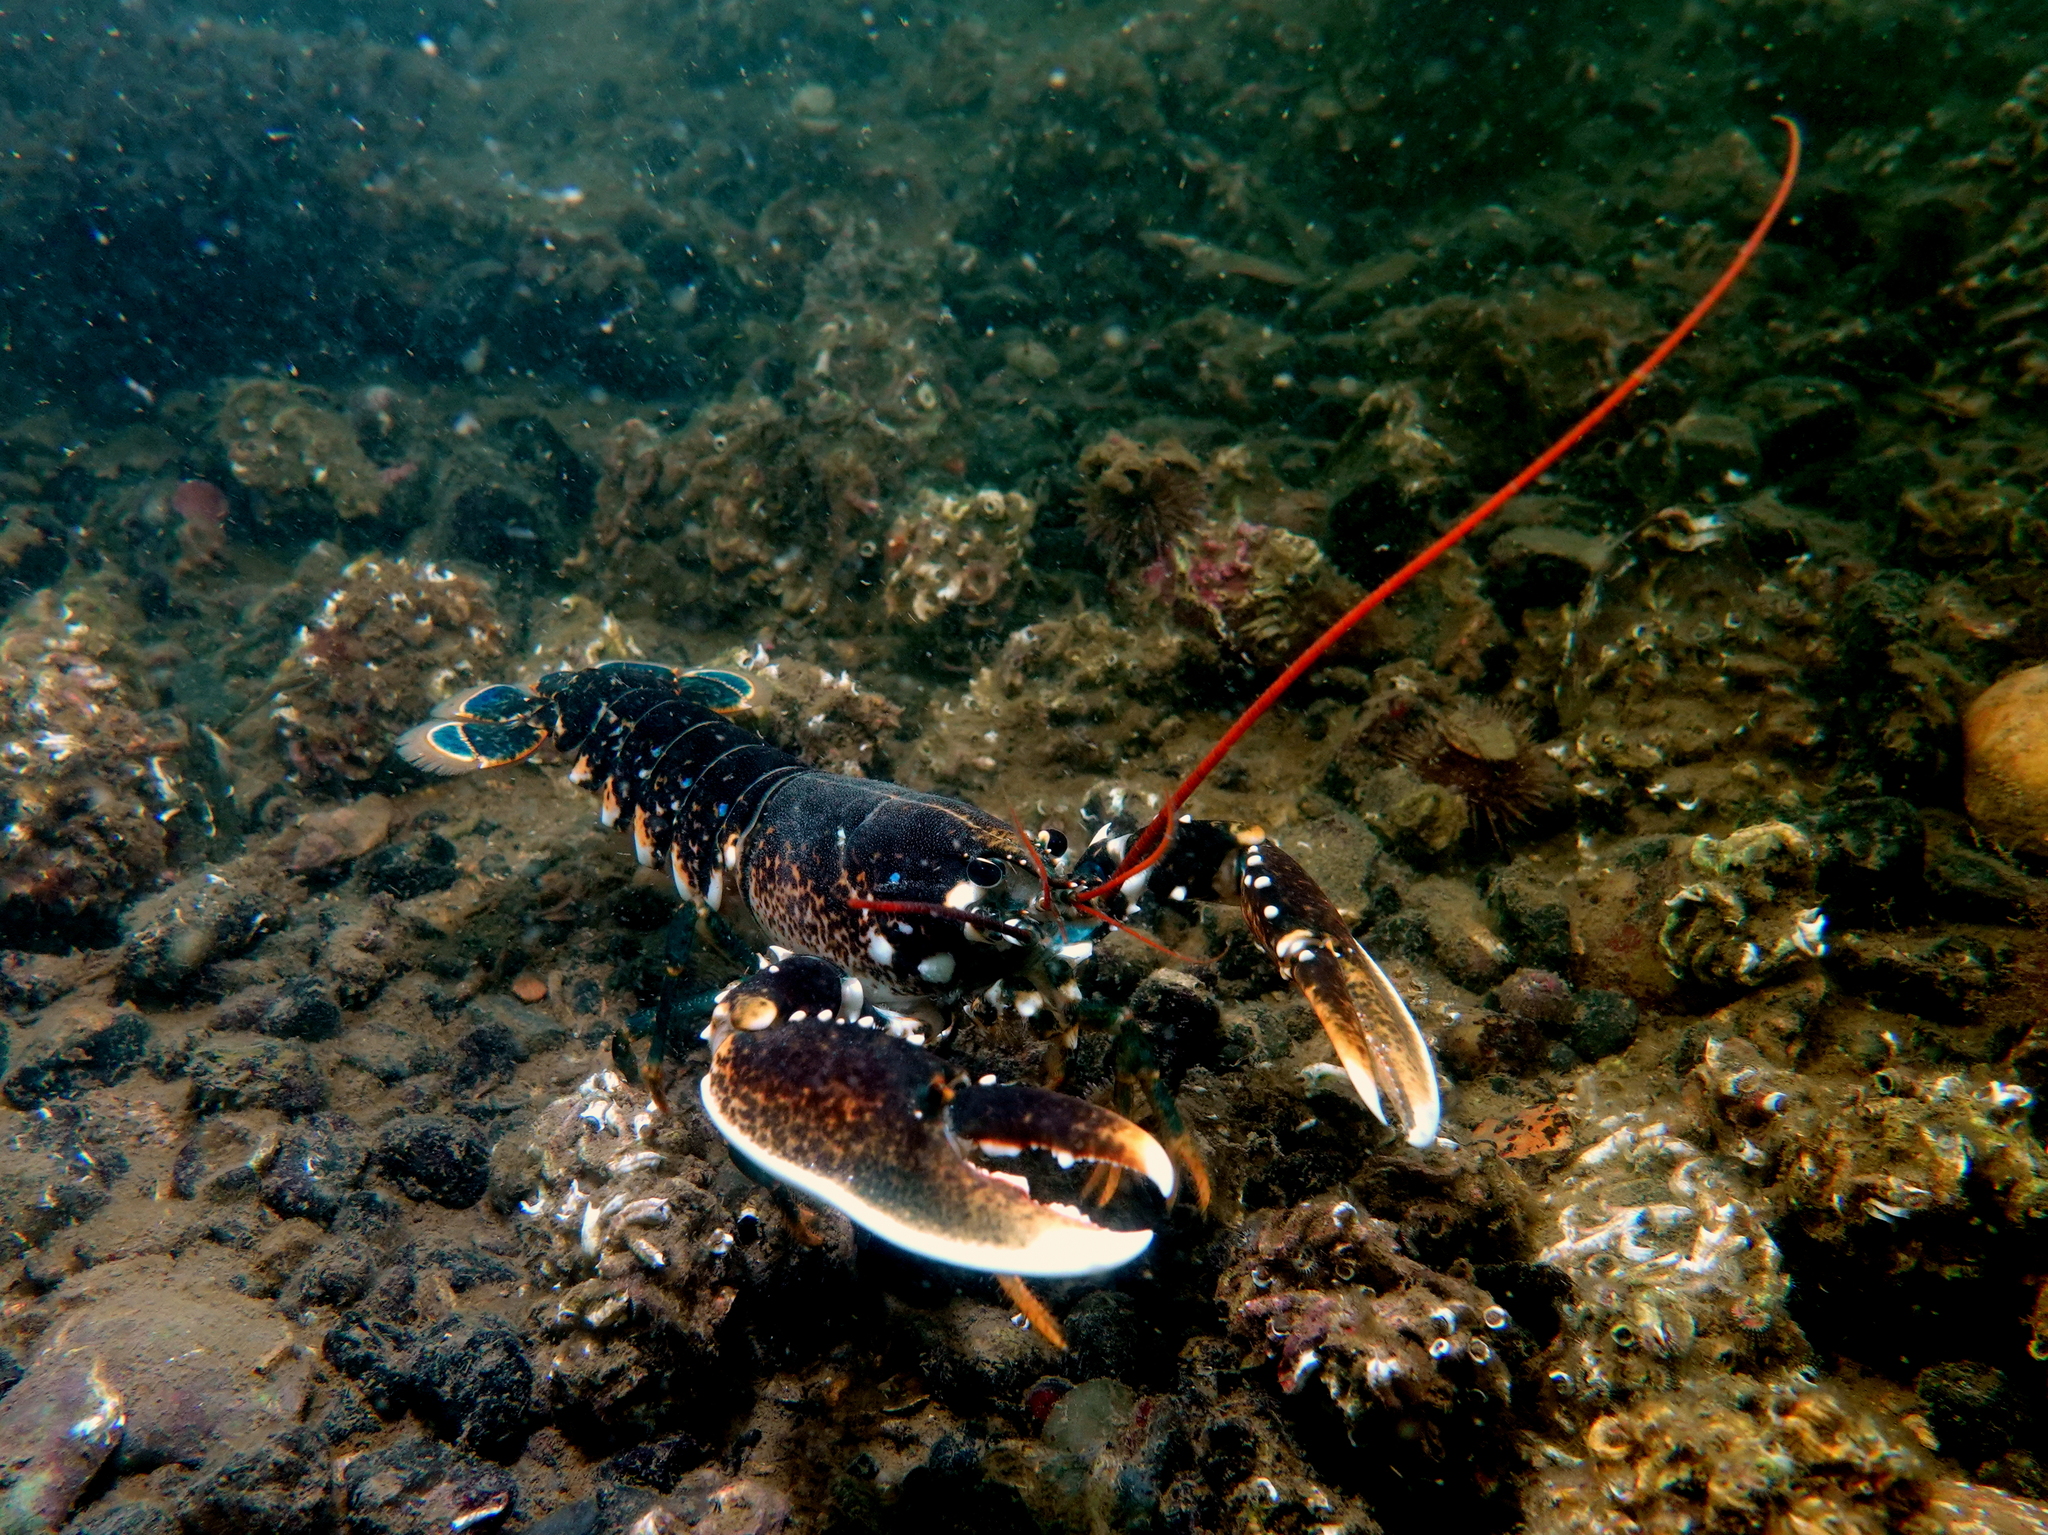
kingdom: Animalia
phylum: Arthropoda
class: Malacostraca
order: Decapoda
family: Nephropidae
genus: Homarus
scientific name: Homarus gammarus
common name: European lobster
